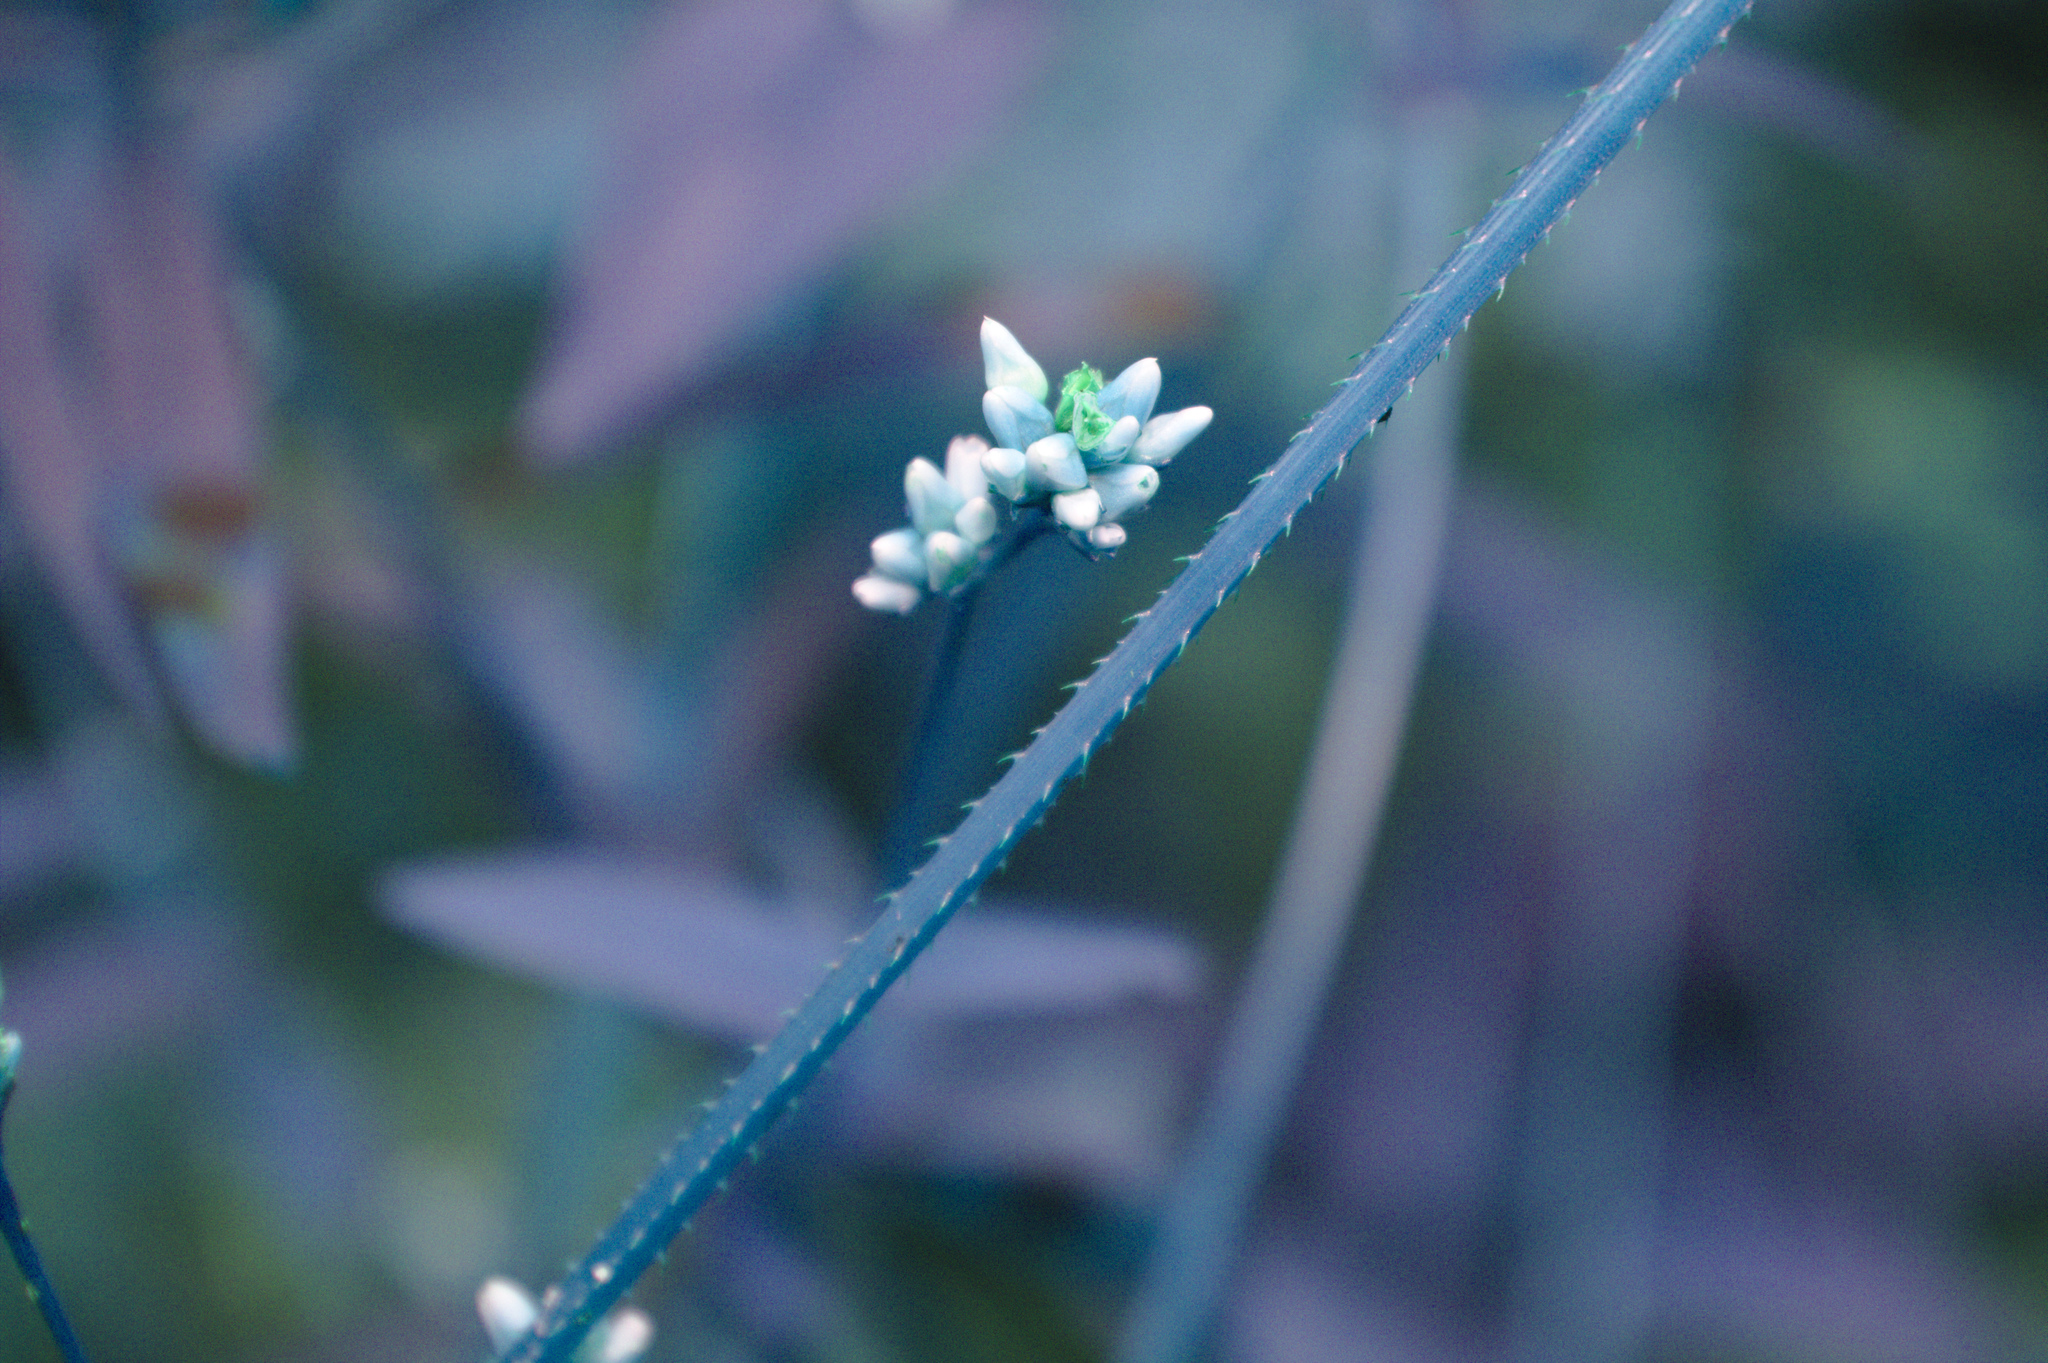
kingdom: Plantae
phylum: Tracheophyta
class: Magnoliopsida
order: Caryophyllales
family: Polygonaceae
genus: Persicaria
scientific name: Persicaria sagittata
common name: American tearthumb
